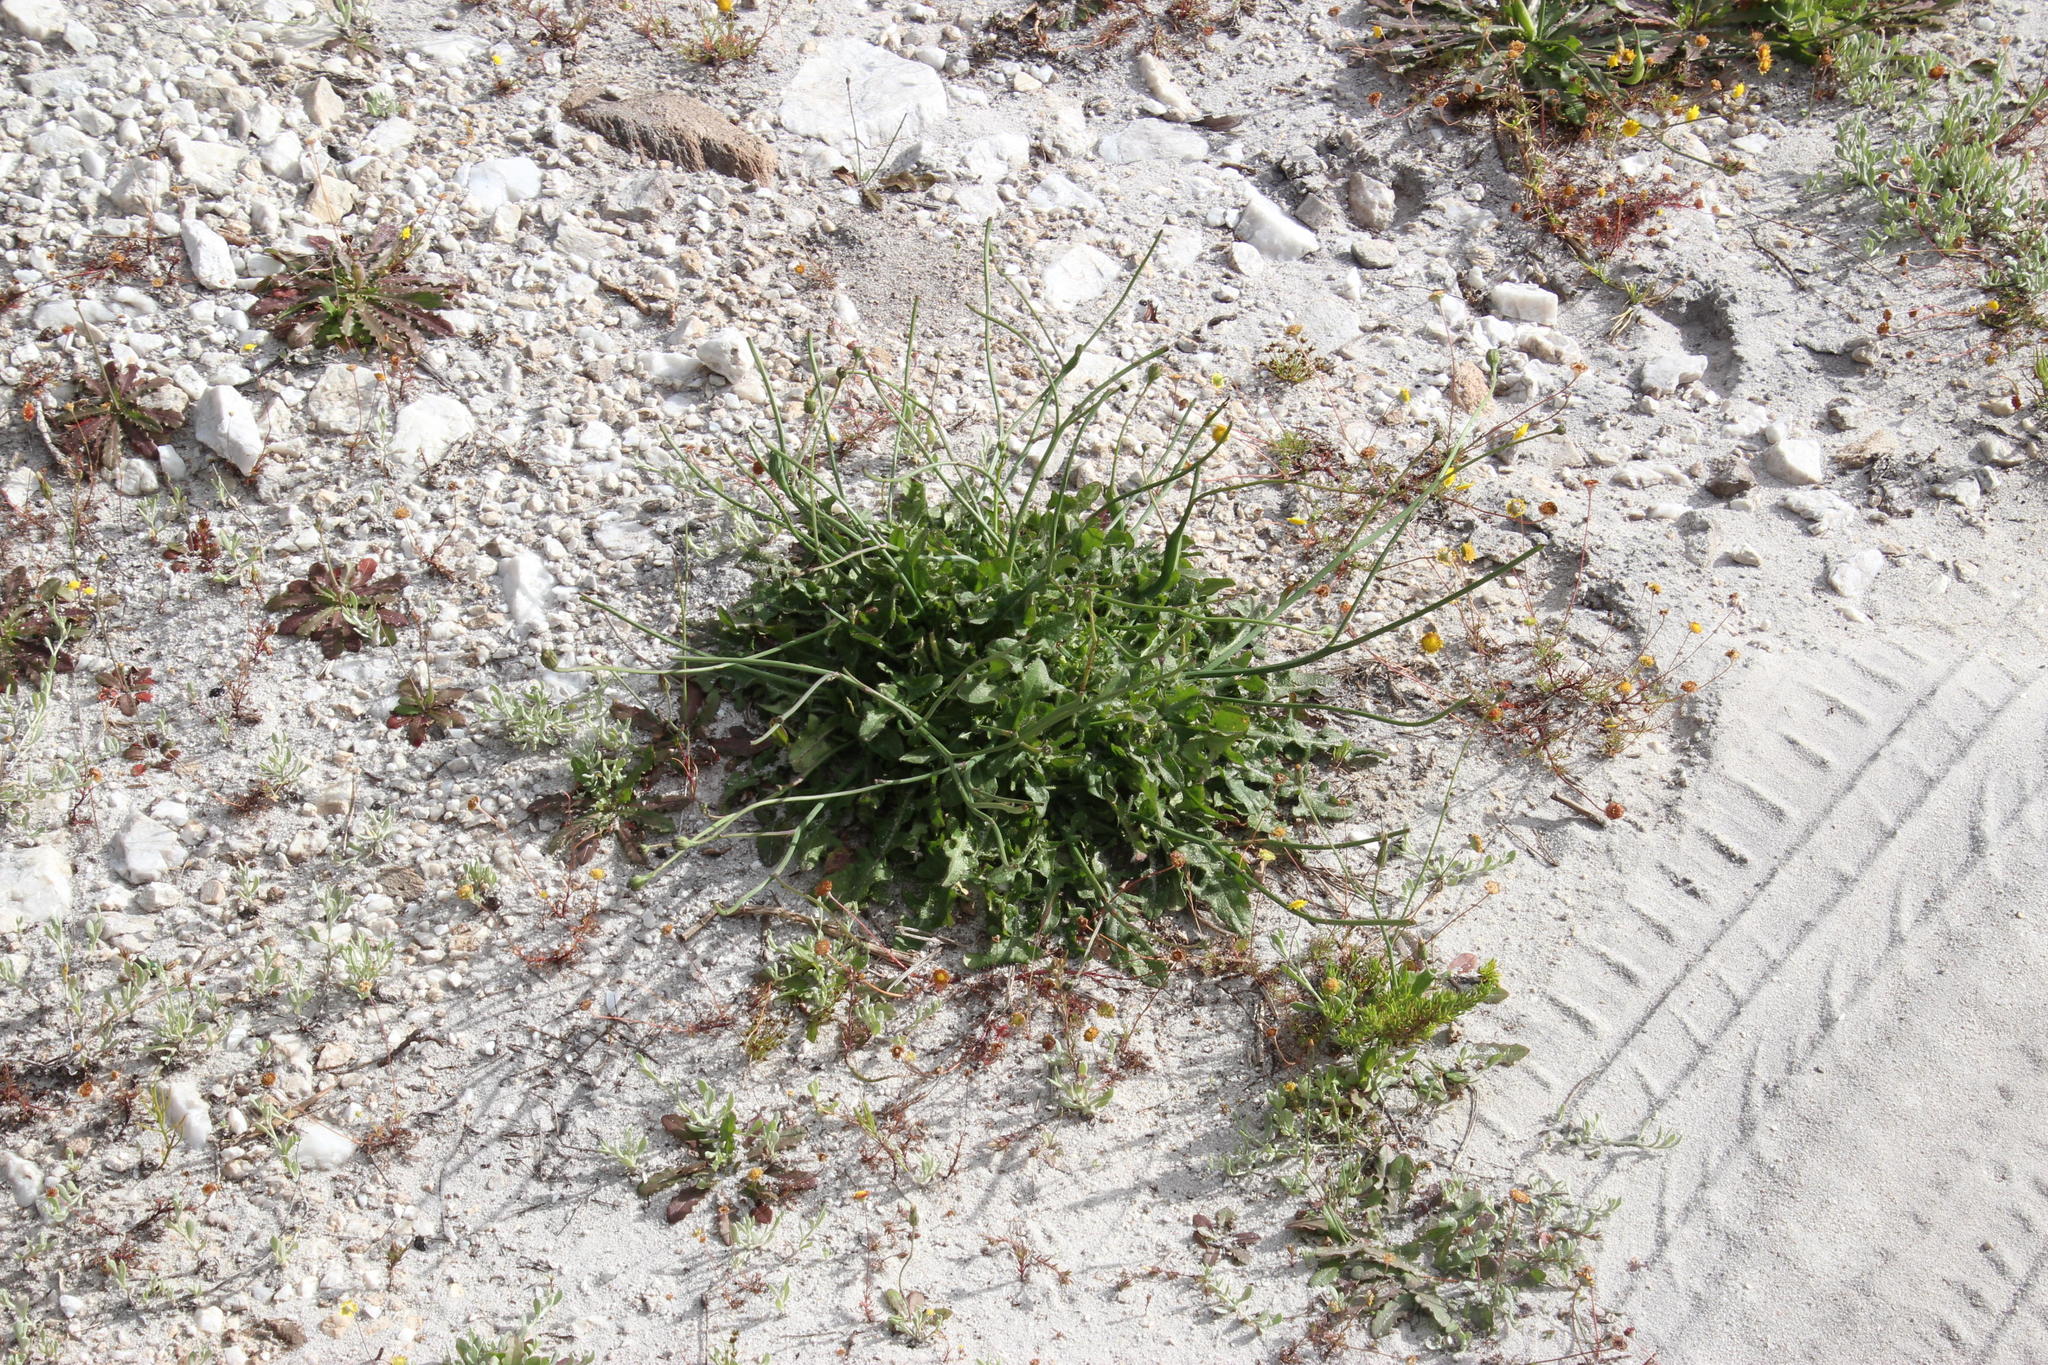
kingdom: Plantae
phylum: Tracheophyta
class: Magnoliopsida
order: Asterales
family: Asteraceae
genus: Hypochaeris
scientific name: Hypochaeris radicata
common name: Flatweed
